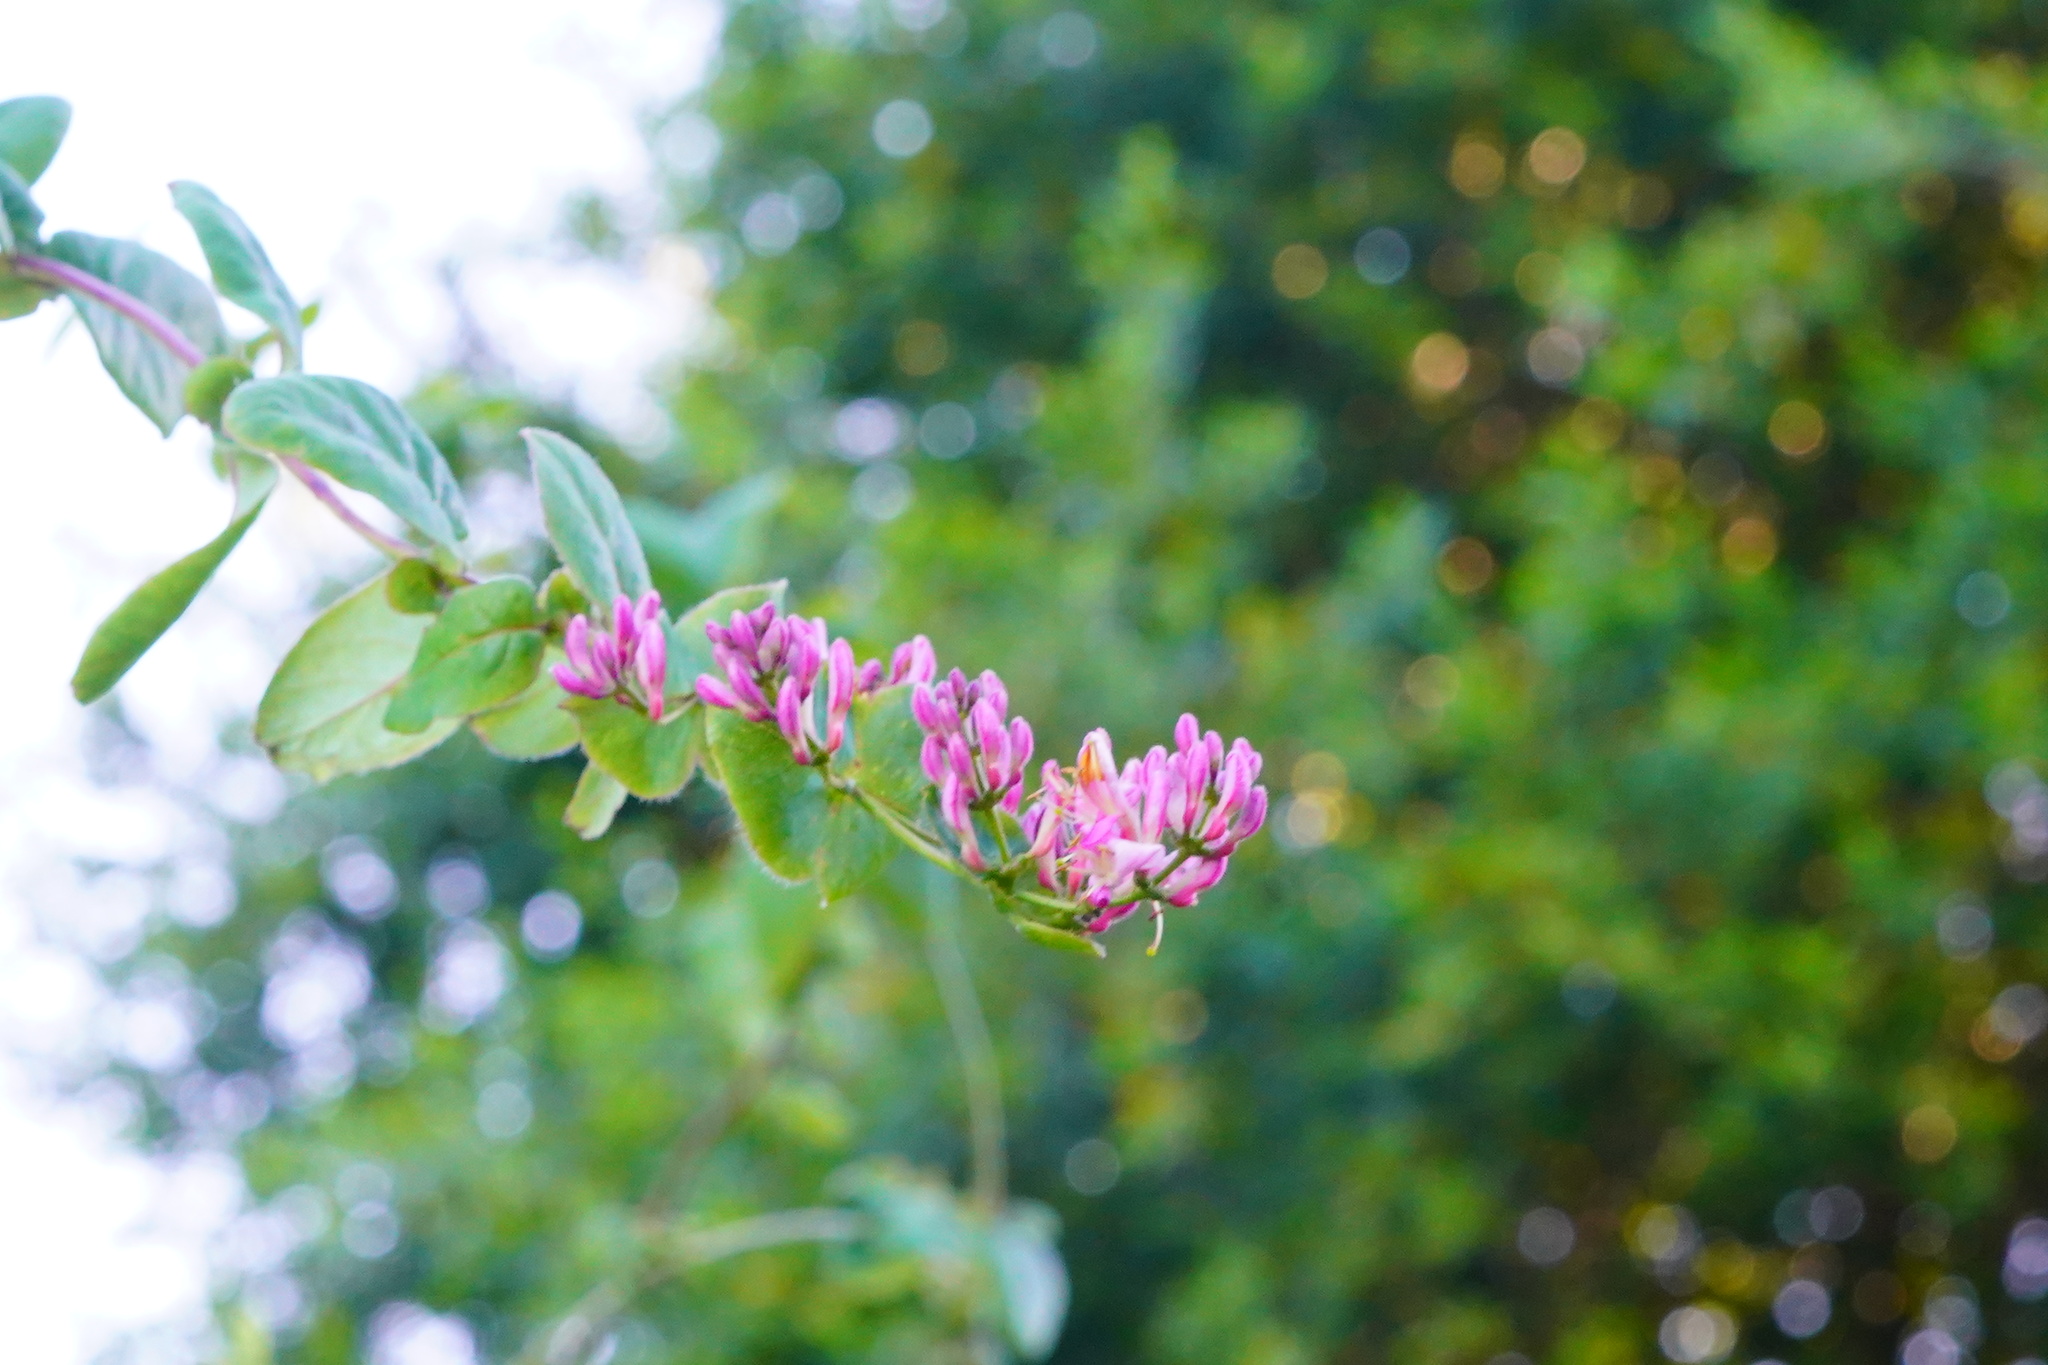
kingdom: Plantae
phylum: Tracheophyta
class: Magnoliopsida
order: Dipsacales
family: Caprifoliaceae
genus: Lonicera
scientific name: Lonicera hispidula
